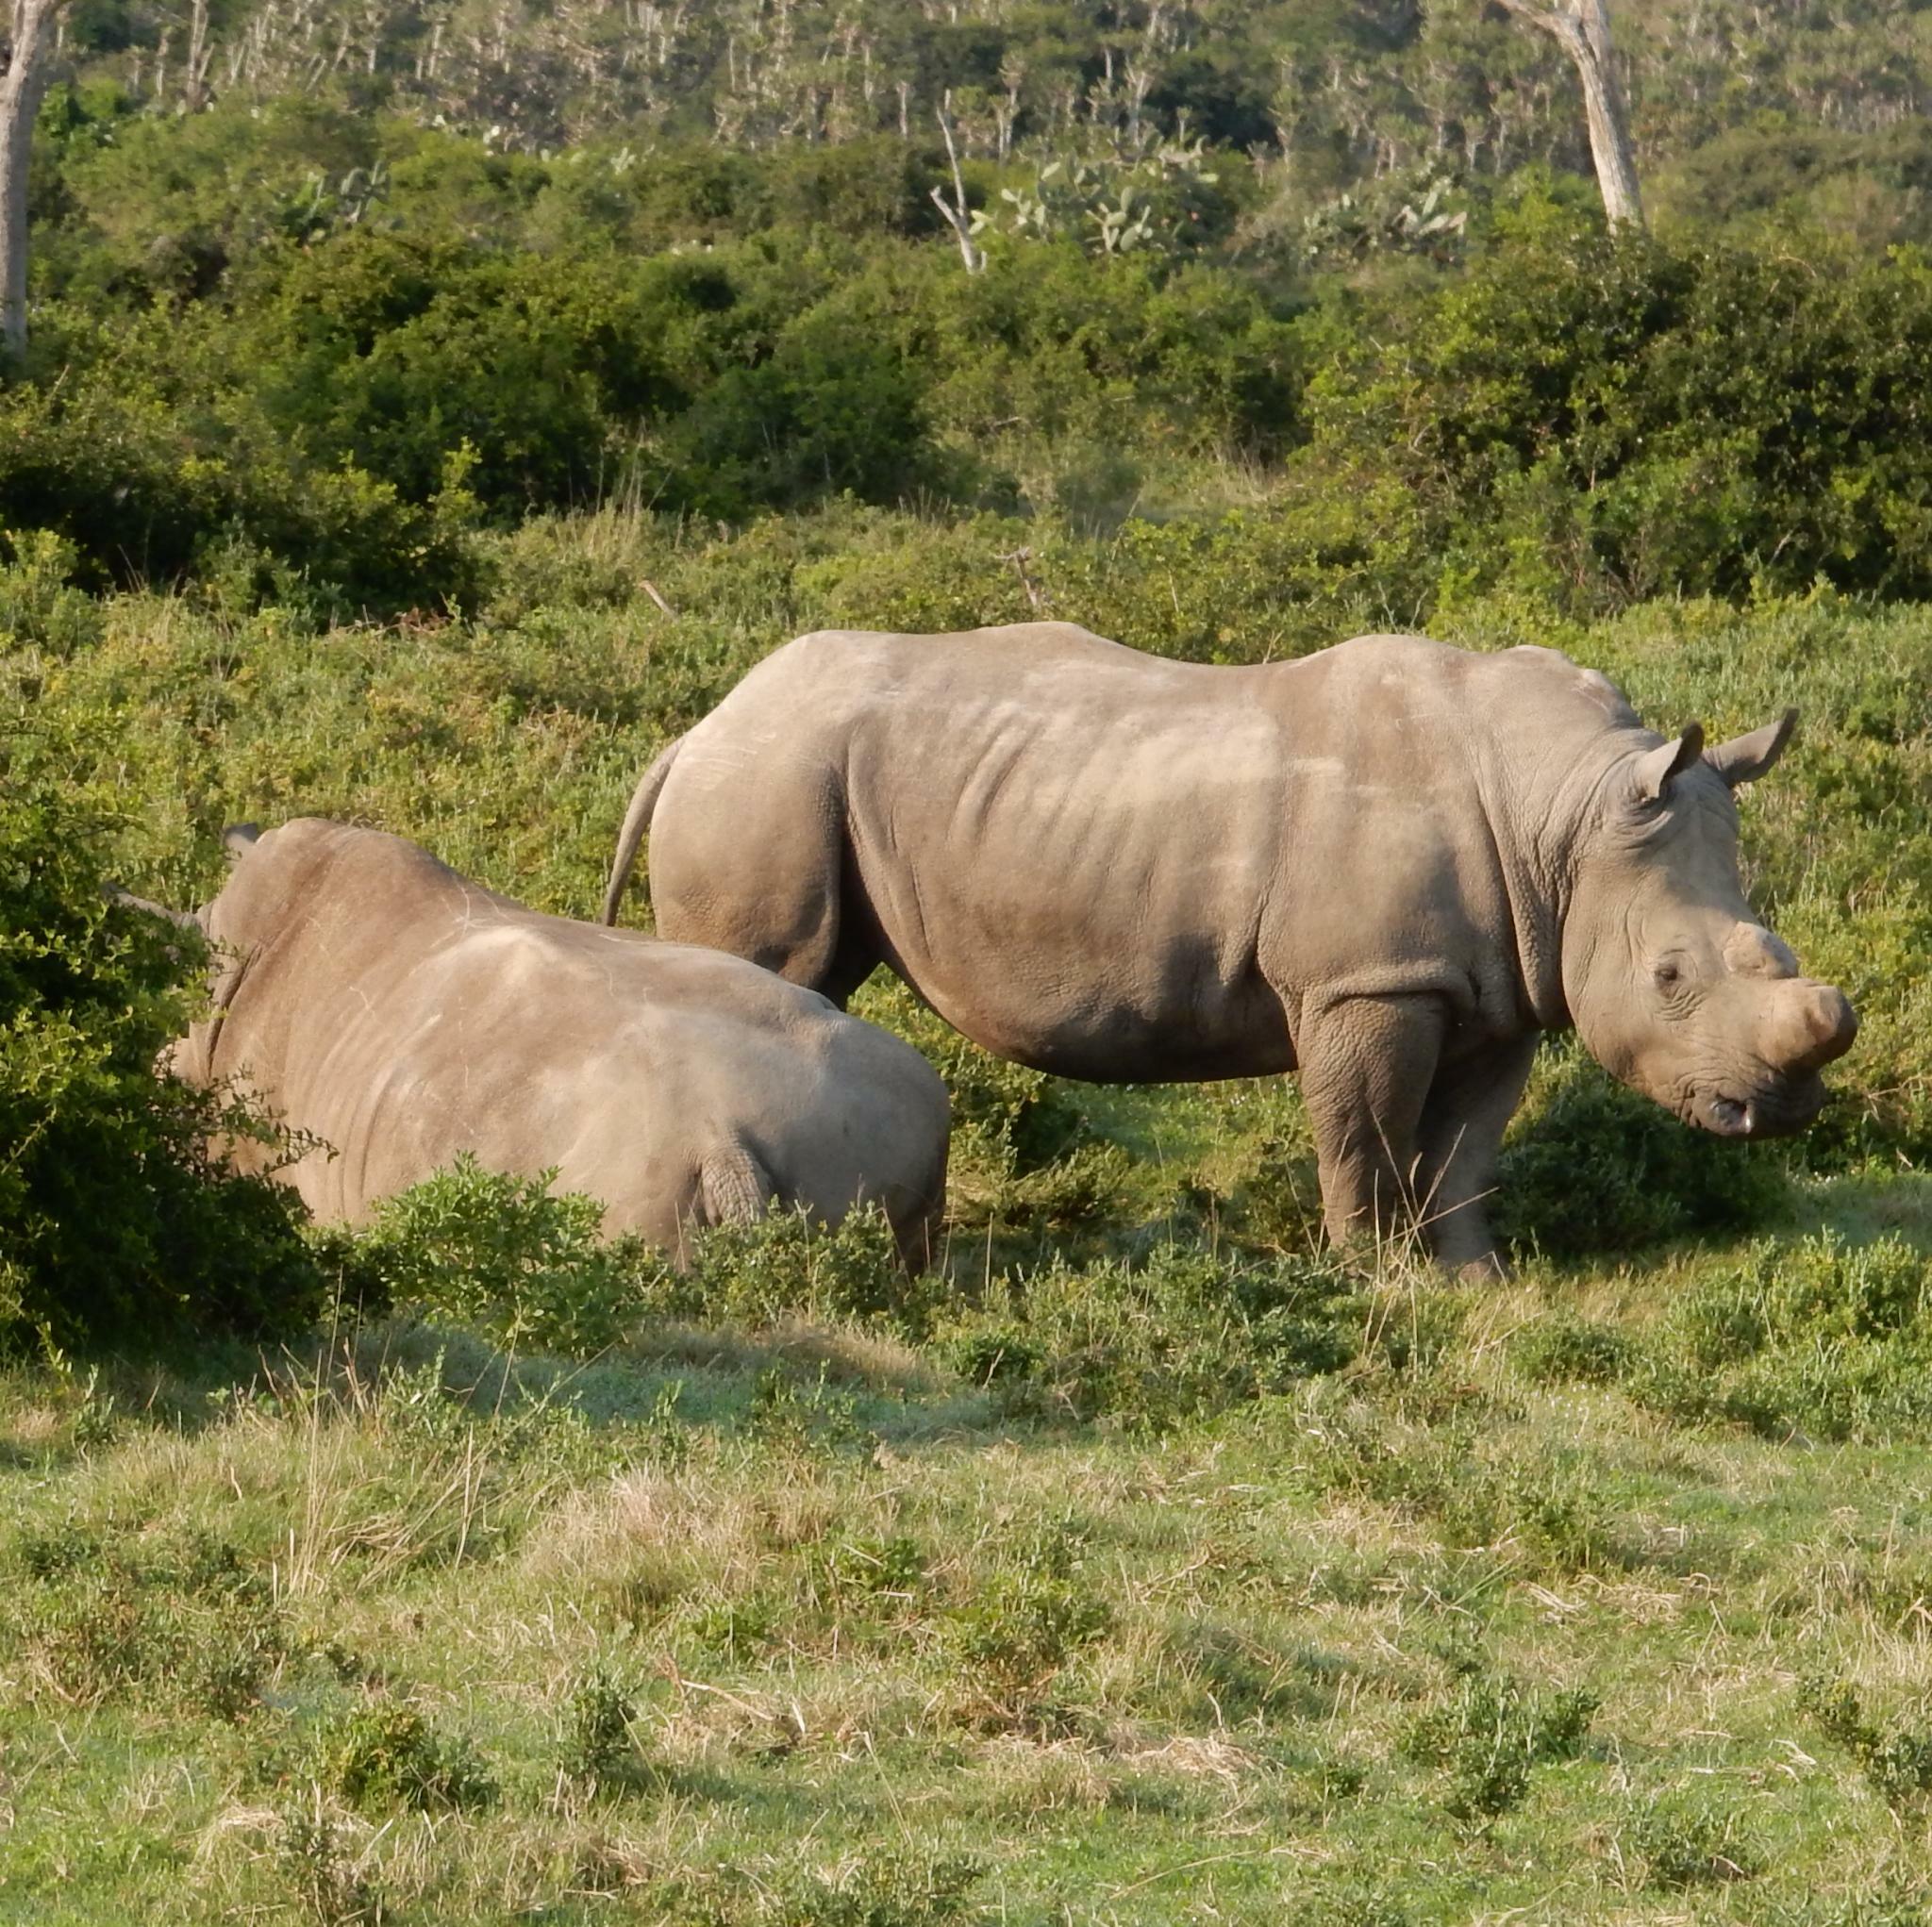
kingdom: Animalia
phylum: Chordata
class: Mammalia
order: Perissodactyla
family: Rhinocerotidae
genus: Ceratotherium
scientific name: Ceratotherium simum
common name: White rhinoceros
